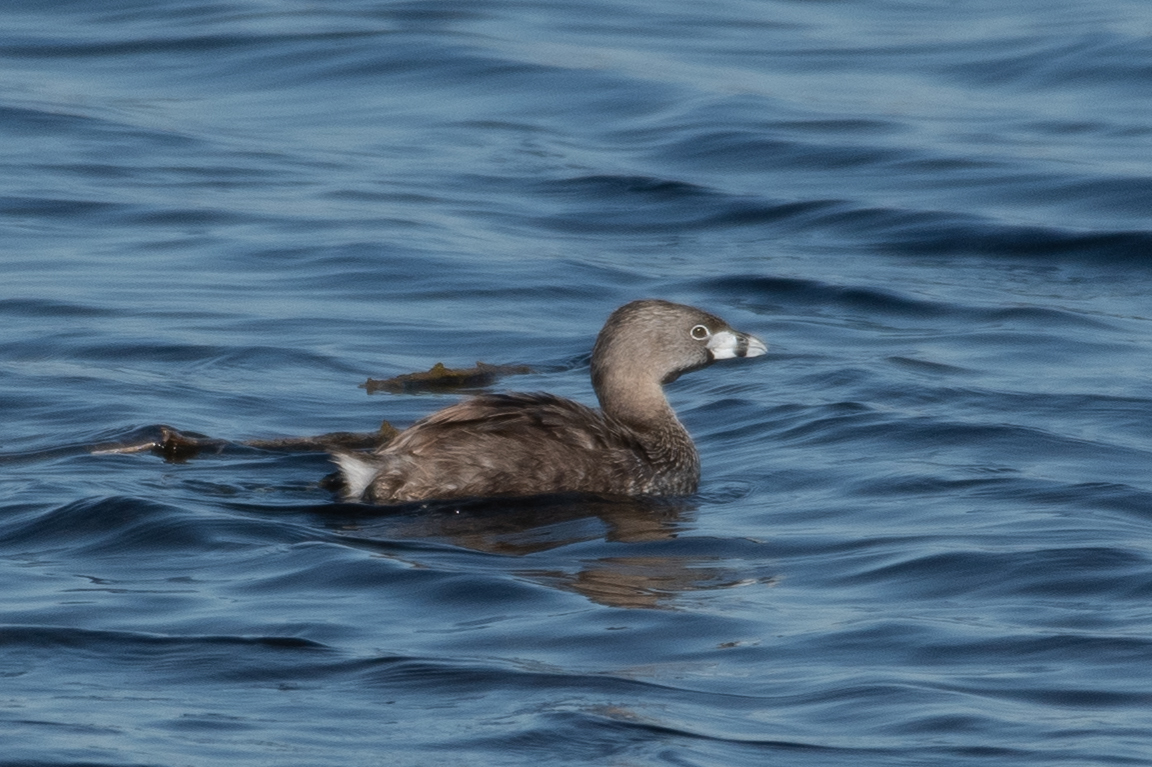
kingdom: Animalia
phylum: Chordata
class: Aves
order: Podicipediformes
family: Podicipedidae
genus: Podilymbus
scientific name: Podilymbus podiceps
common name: Pied-billed grebe
